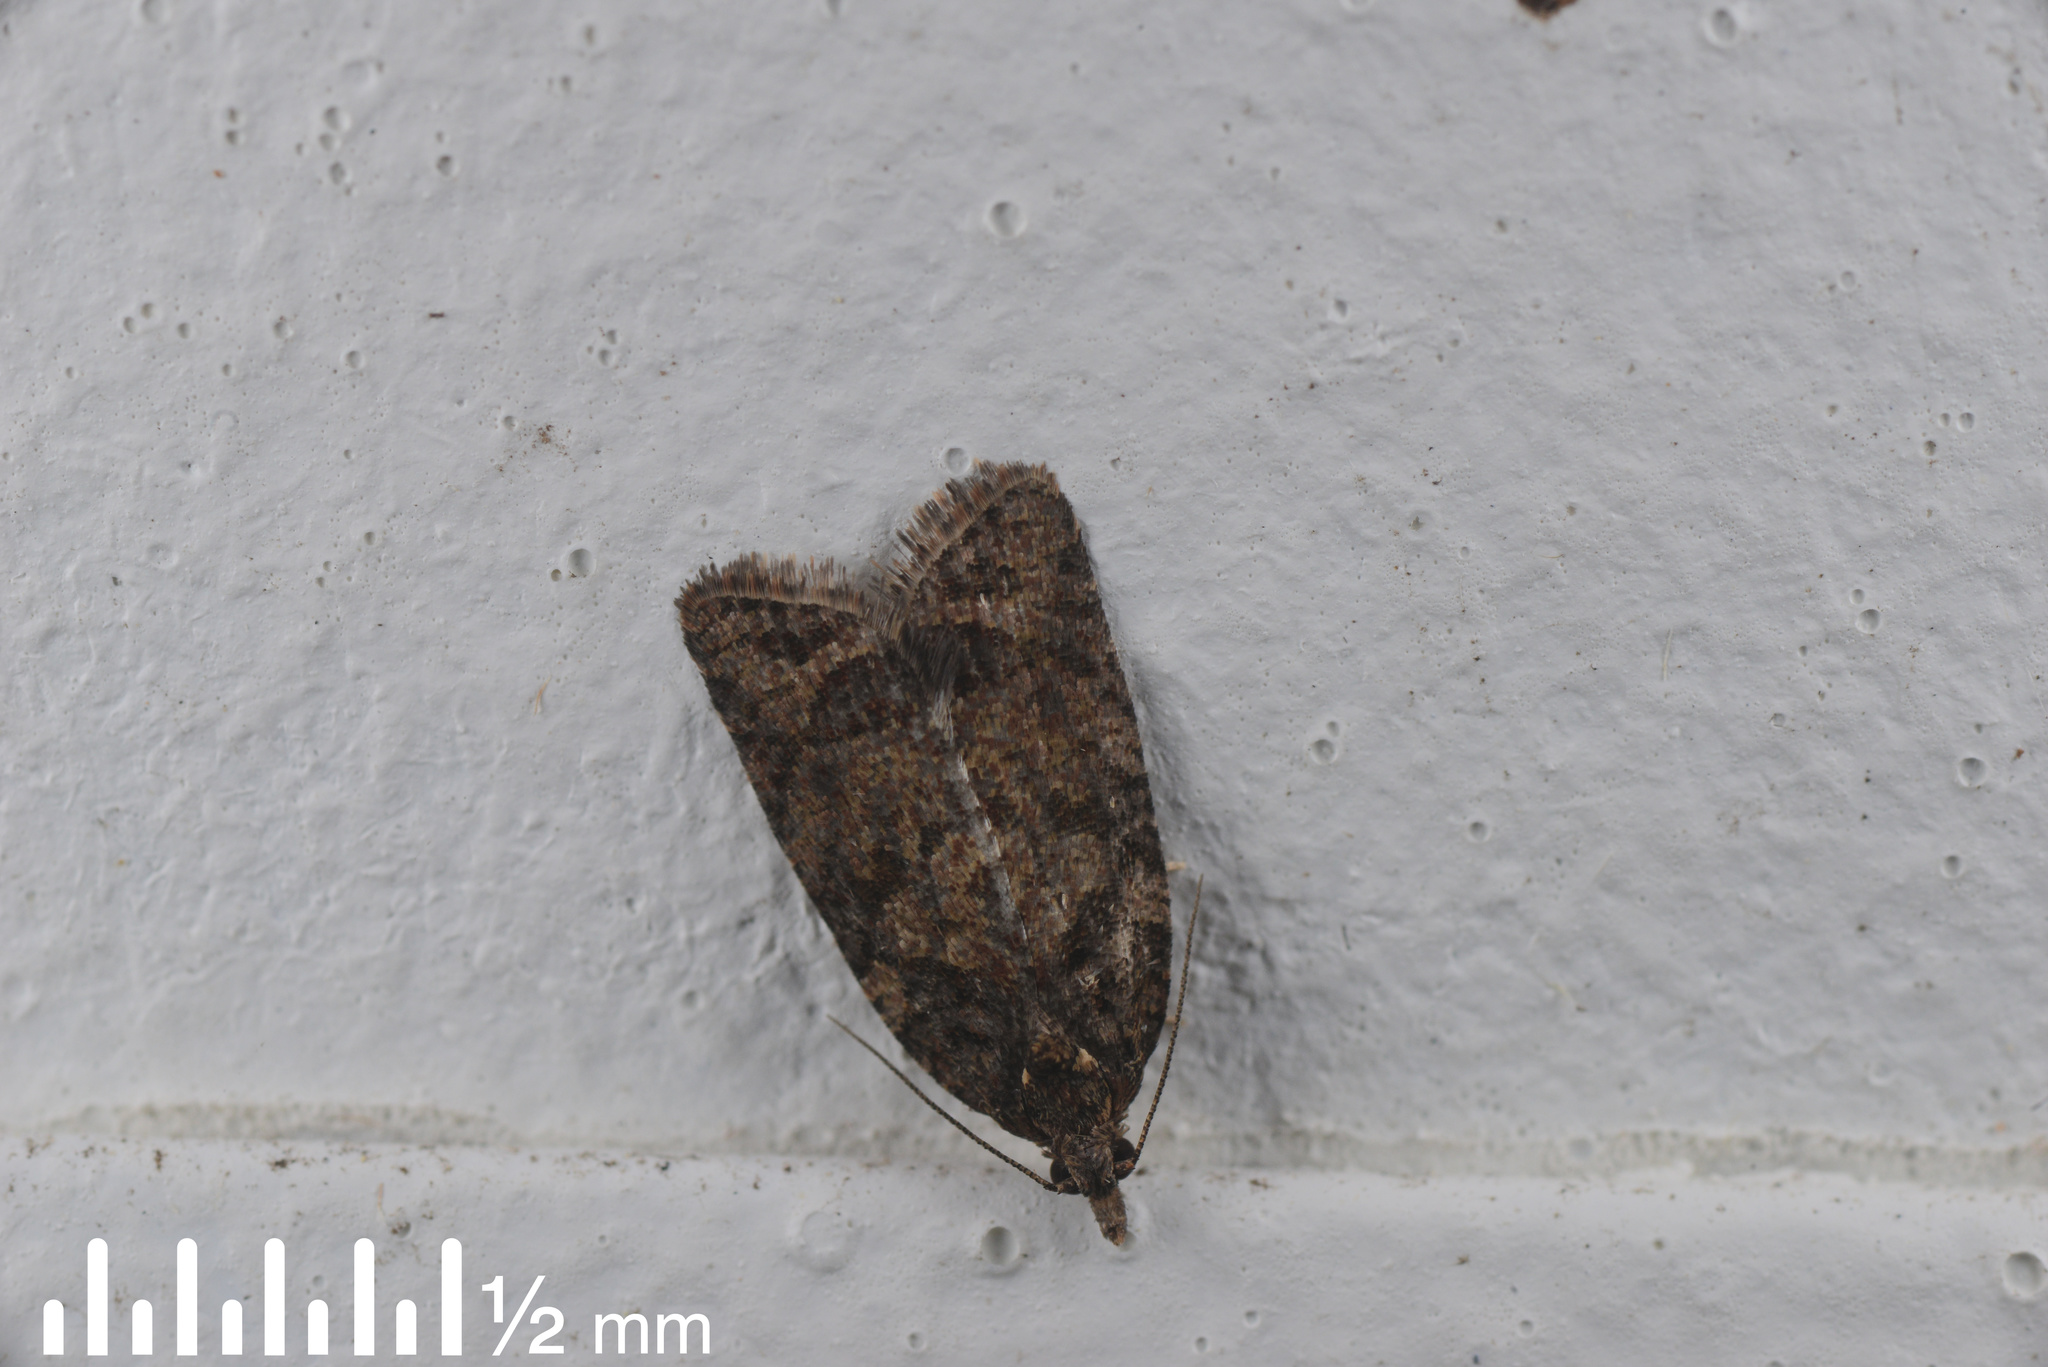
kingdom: Animalia
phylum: Arthropoda
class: Insecta
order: Lepidoptera
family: Tortricidae
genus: Capua
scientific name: Capua intractana
